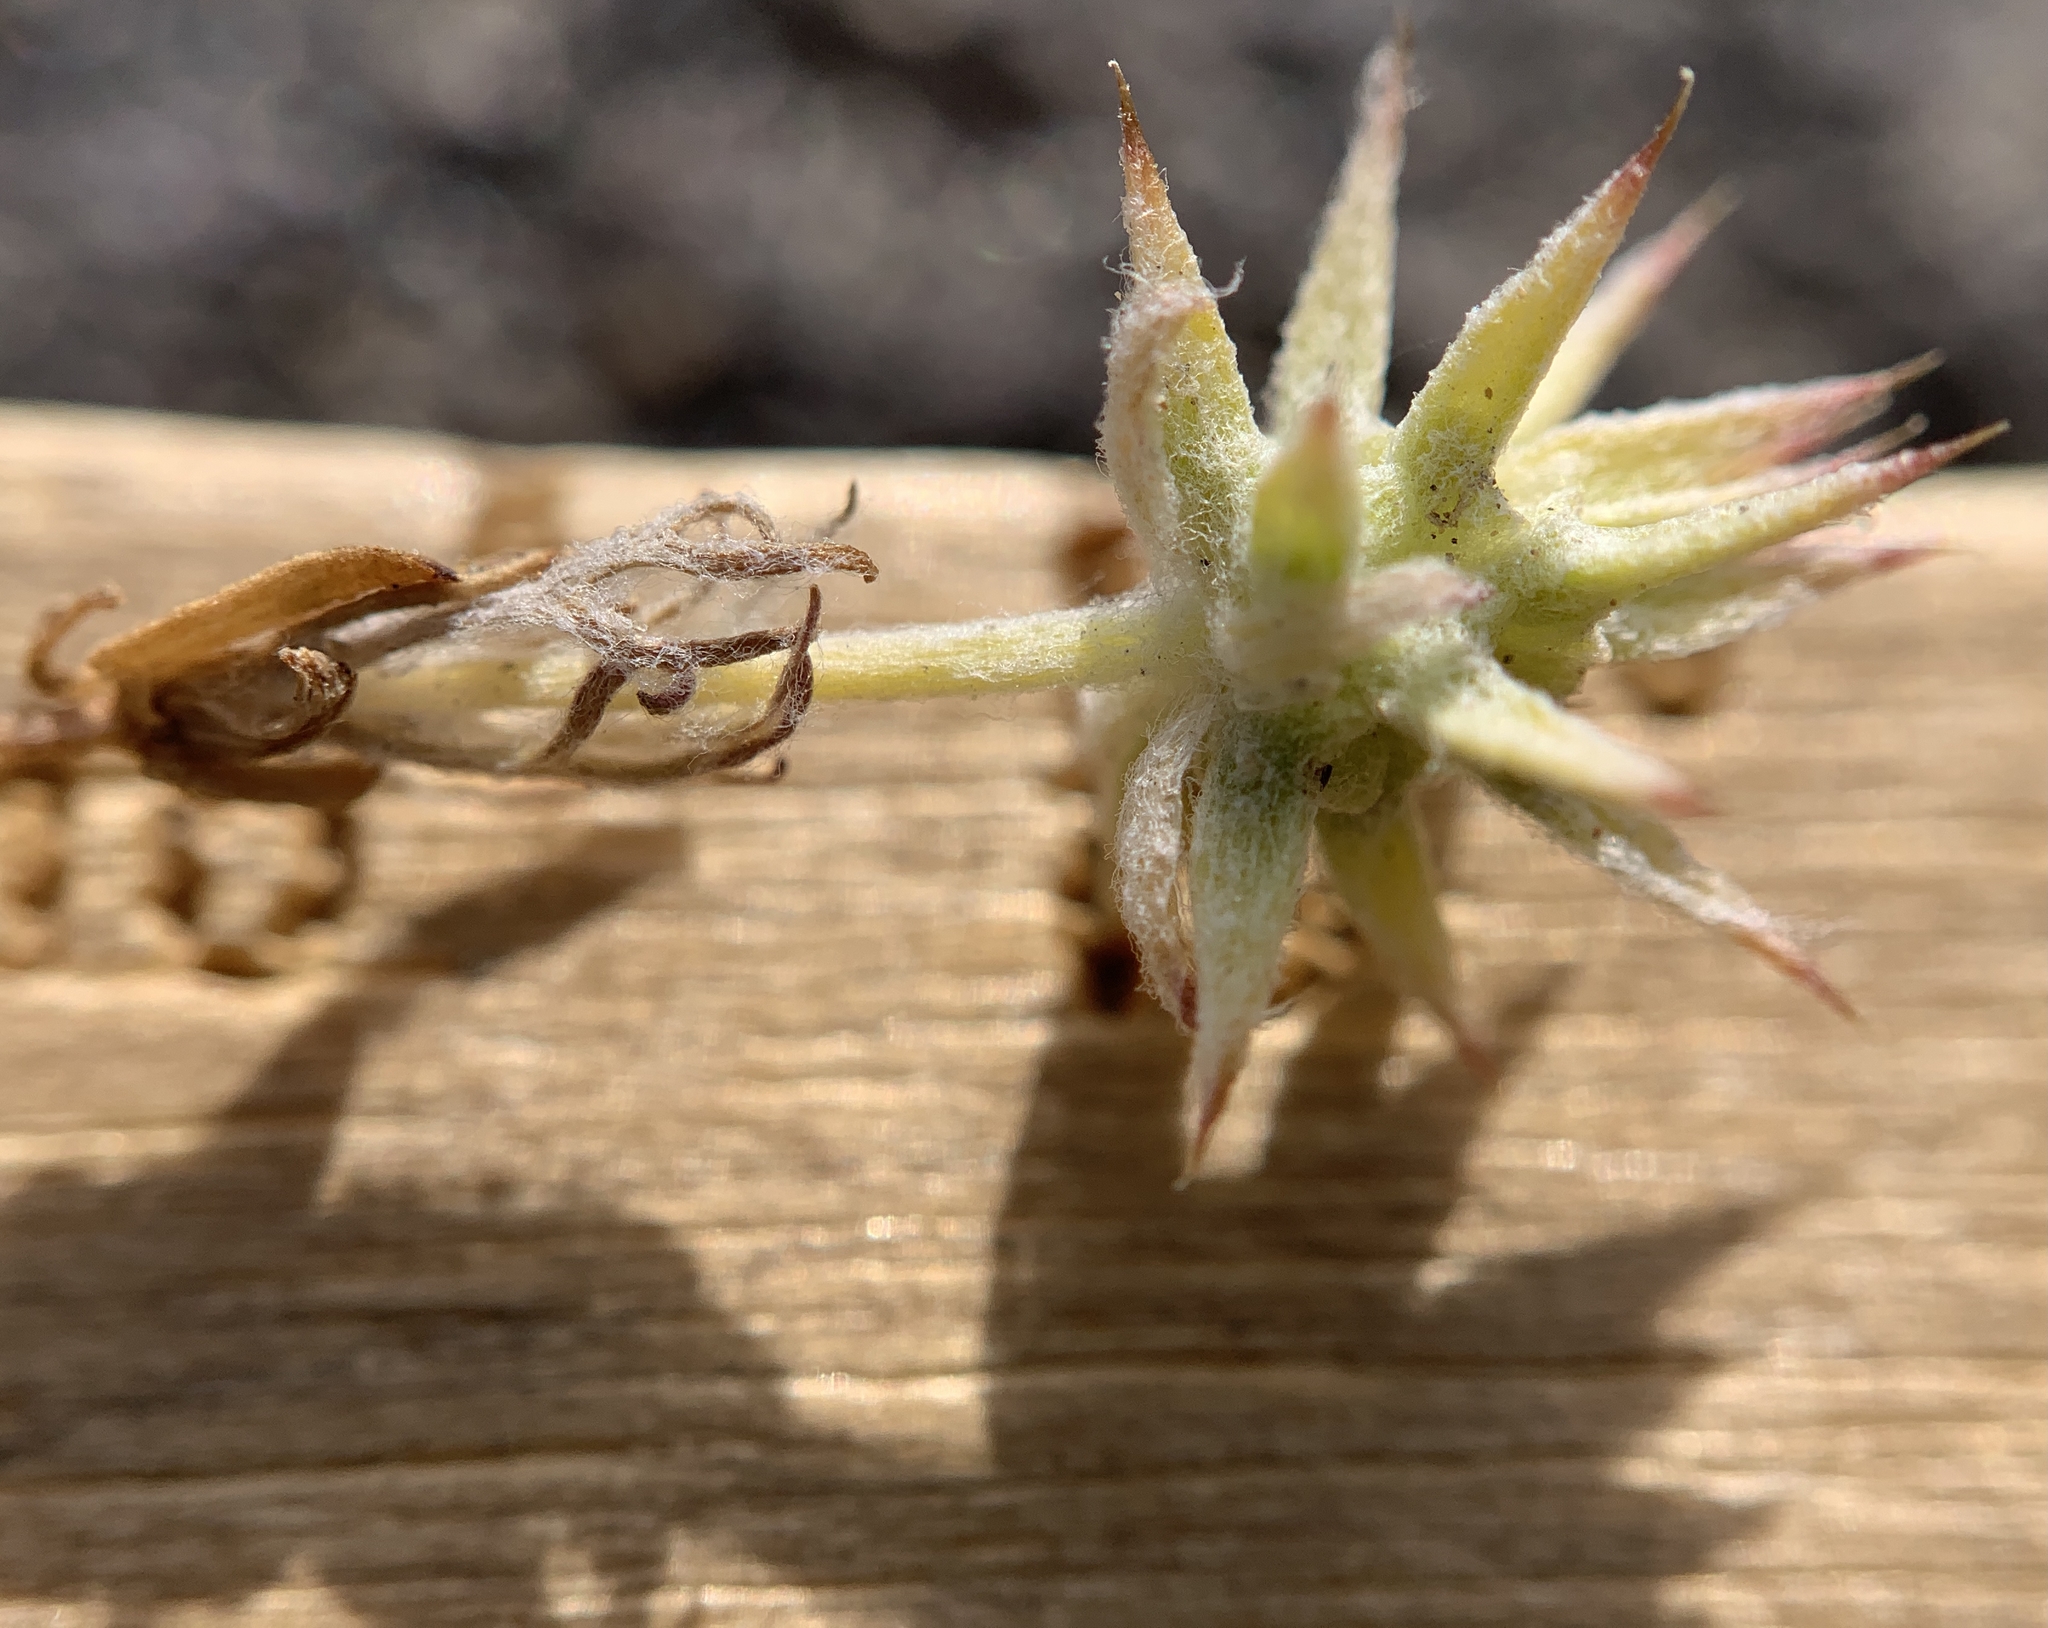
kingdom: Plantae
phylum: Tracheophyta
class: Magnoliopsida
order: Ranunculales
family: Ranunculaceae
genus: Ceratocephala
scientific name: Ceratocephala orthoceras
